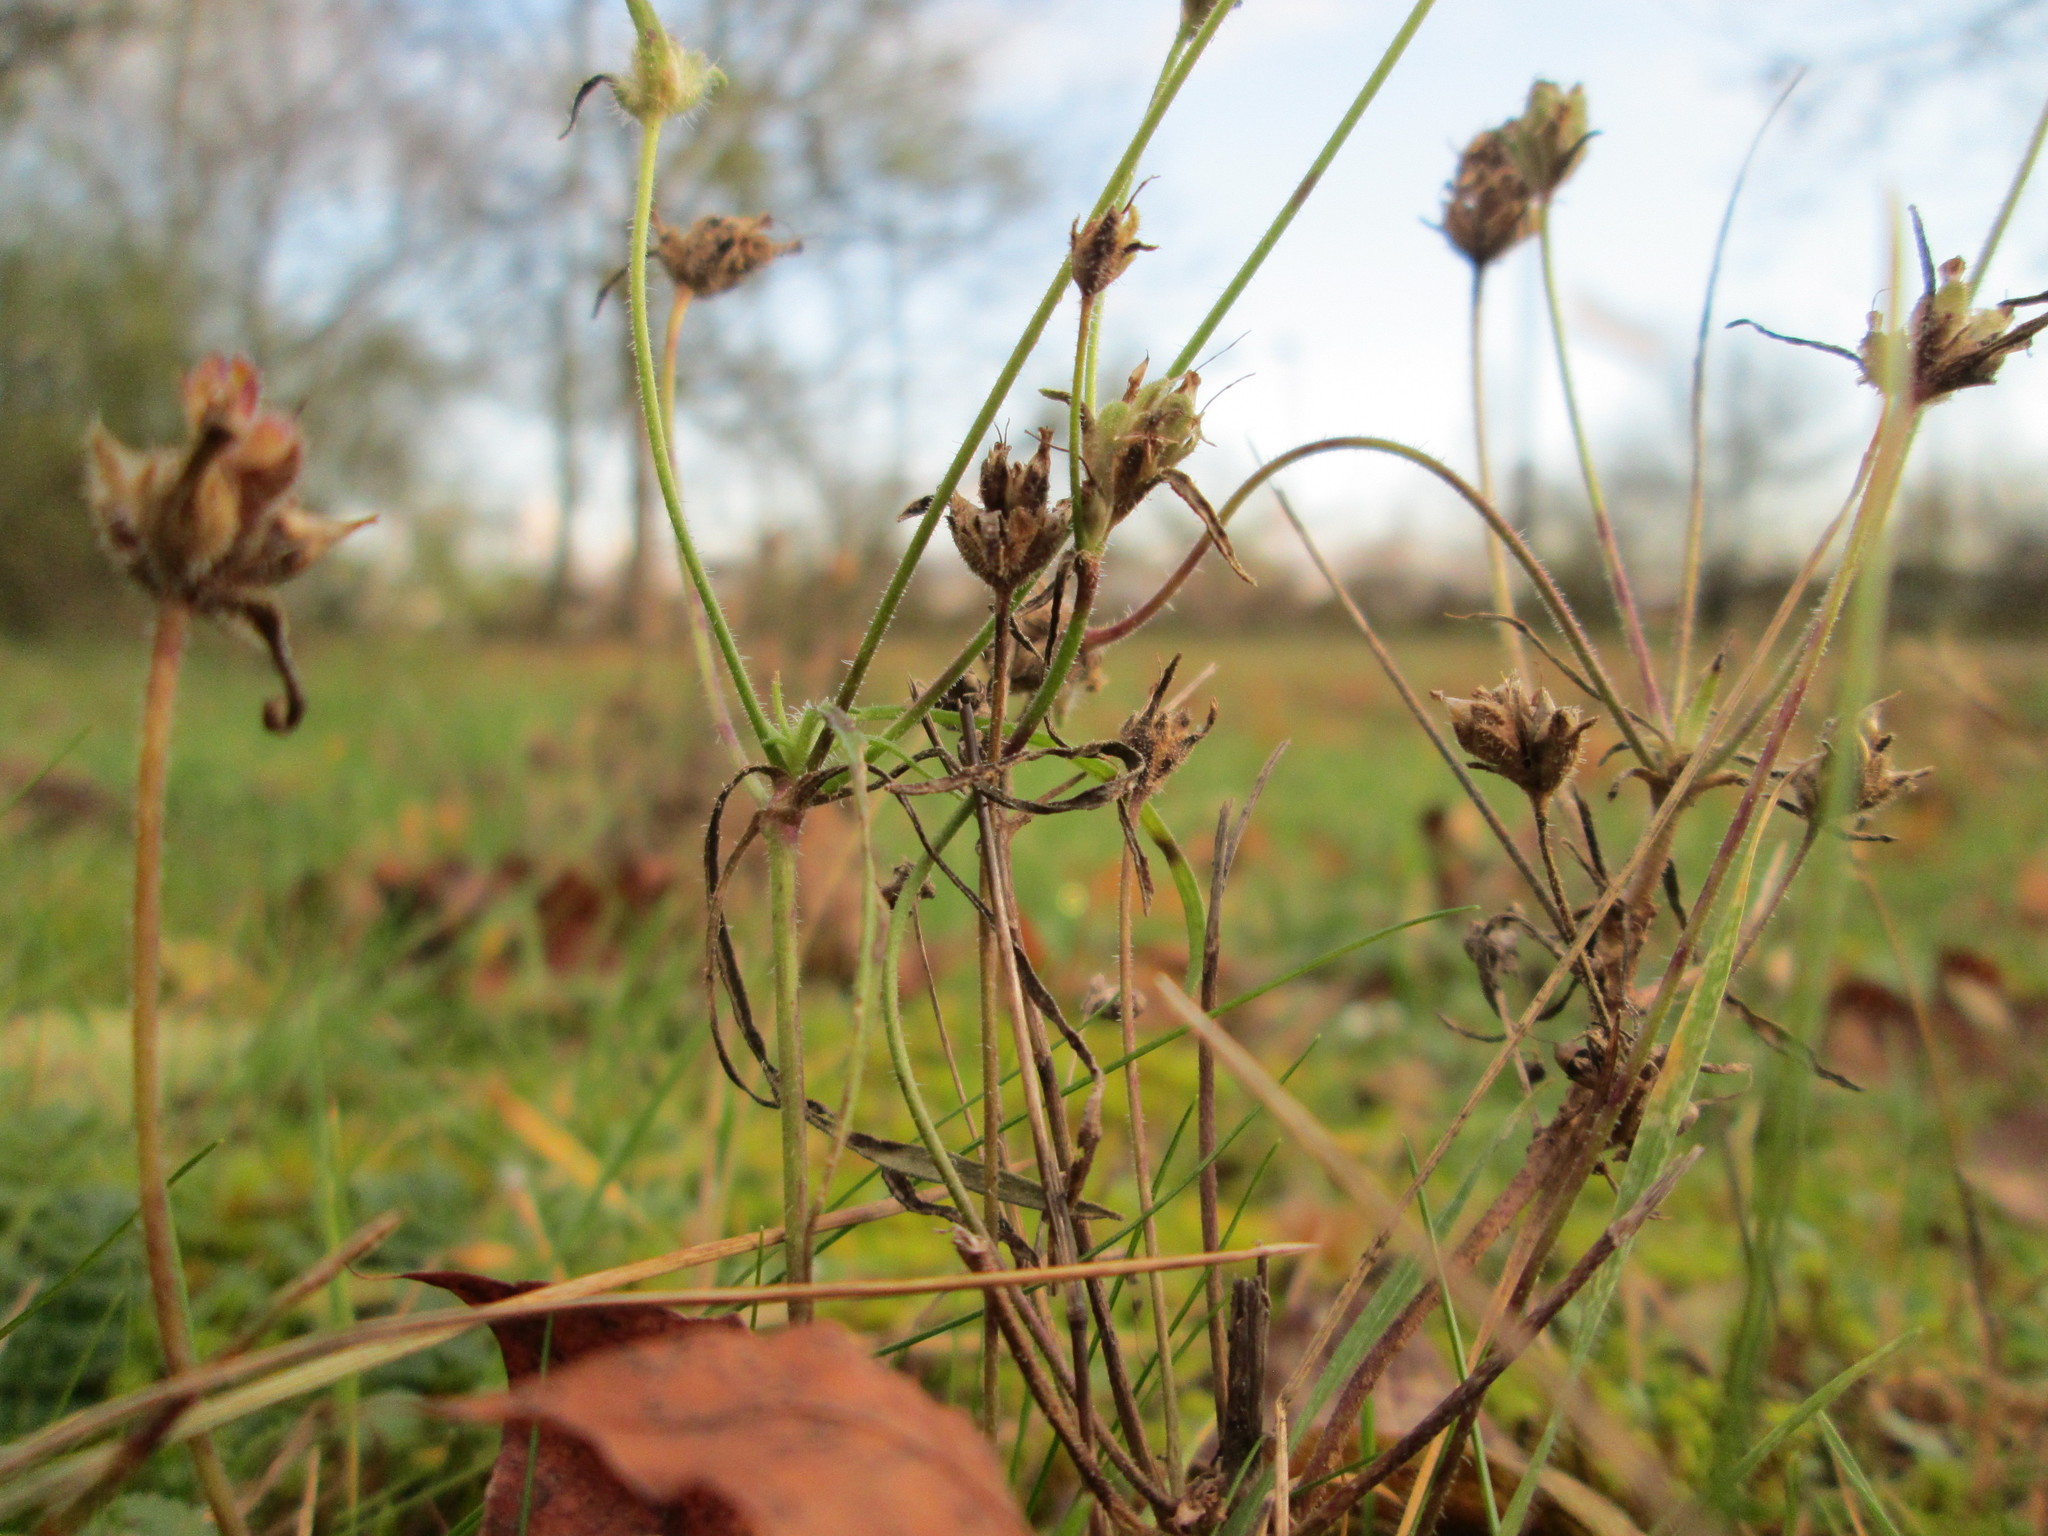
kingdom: Plantae
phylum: Tracheophyta
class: Magnoliopsida
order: Lamiales
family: Plantaginaceae
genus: Plantago
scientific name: Plantago arenaria
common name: Branched plantain
